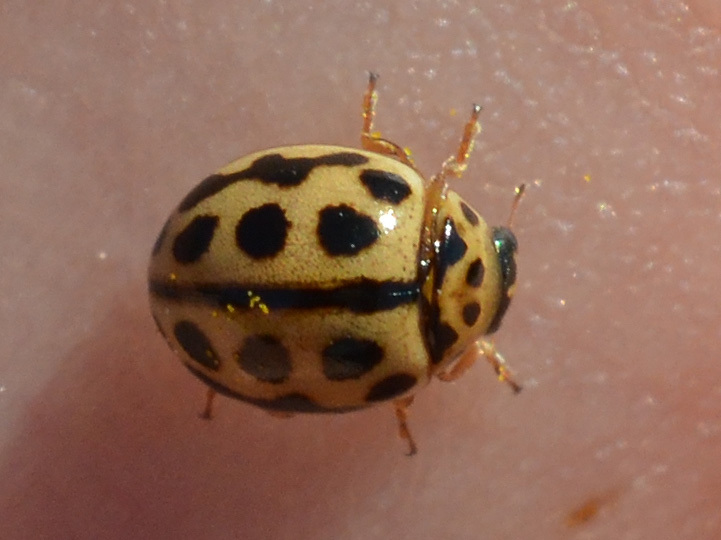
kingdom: Animalia
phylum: Arthropoda
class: Insecta
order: Coleoptera
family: Coccinellidae
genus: Tytthaspis
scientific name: Tytthaspis sedecimpunctata
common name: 16-spot ladybird
